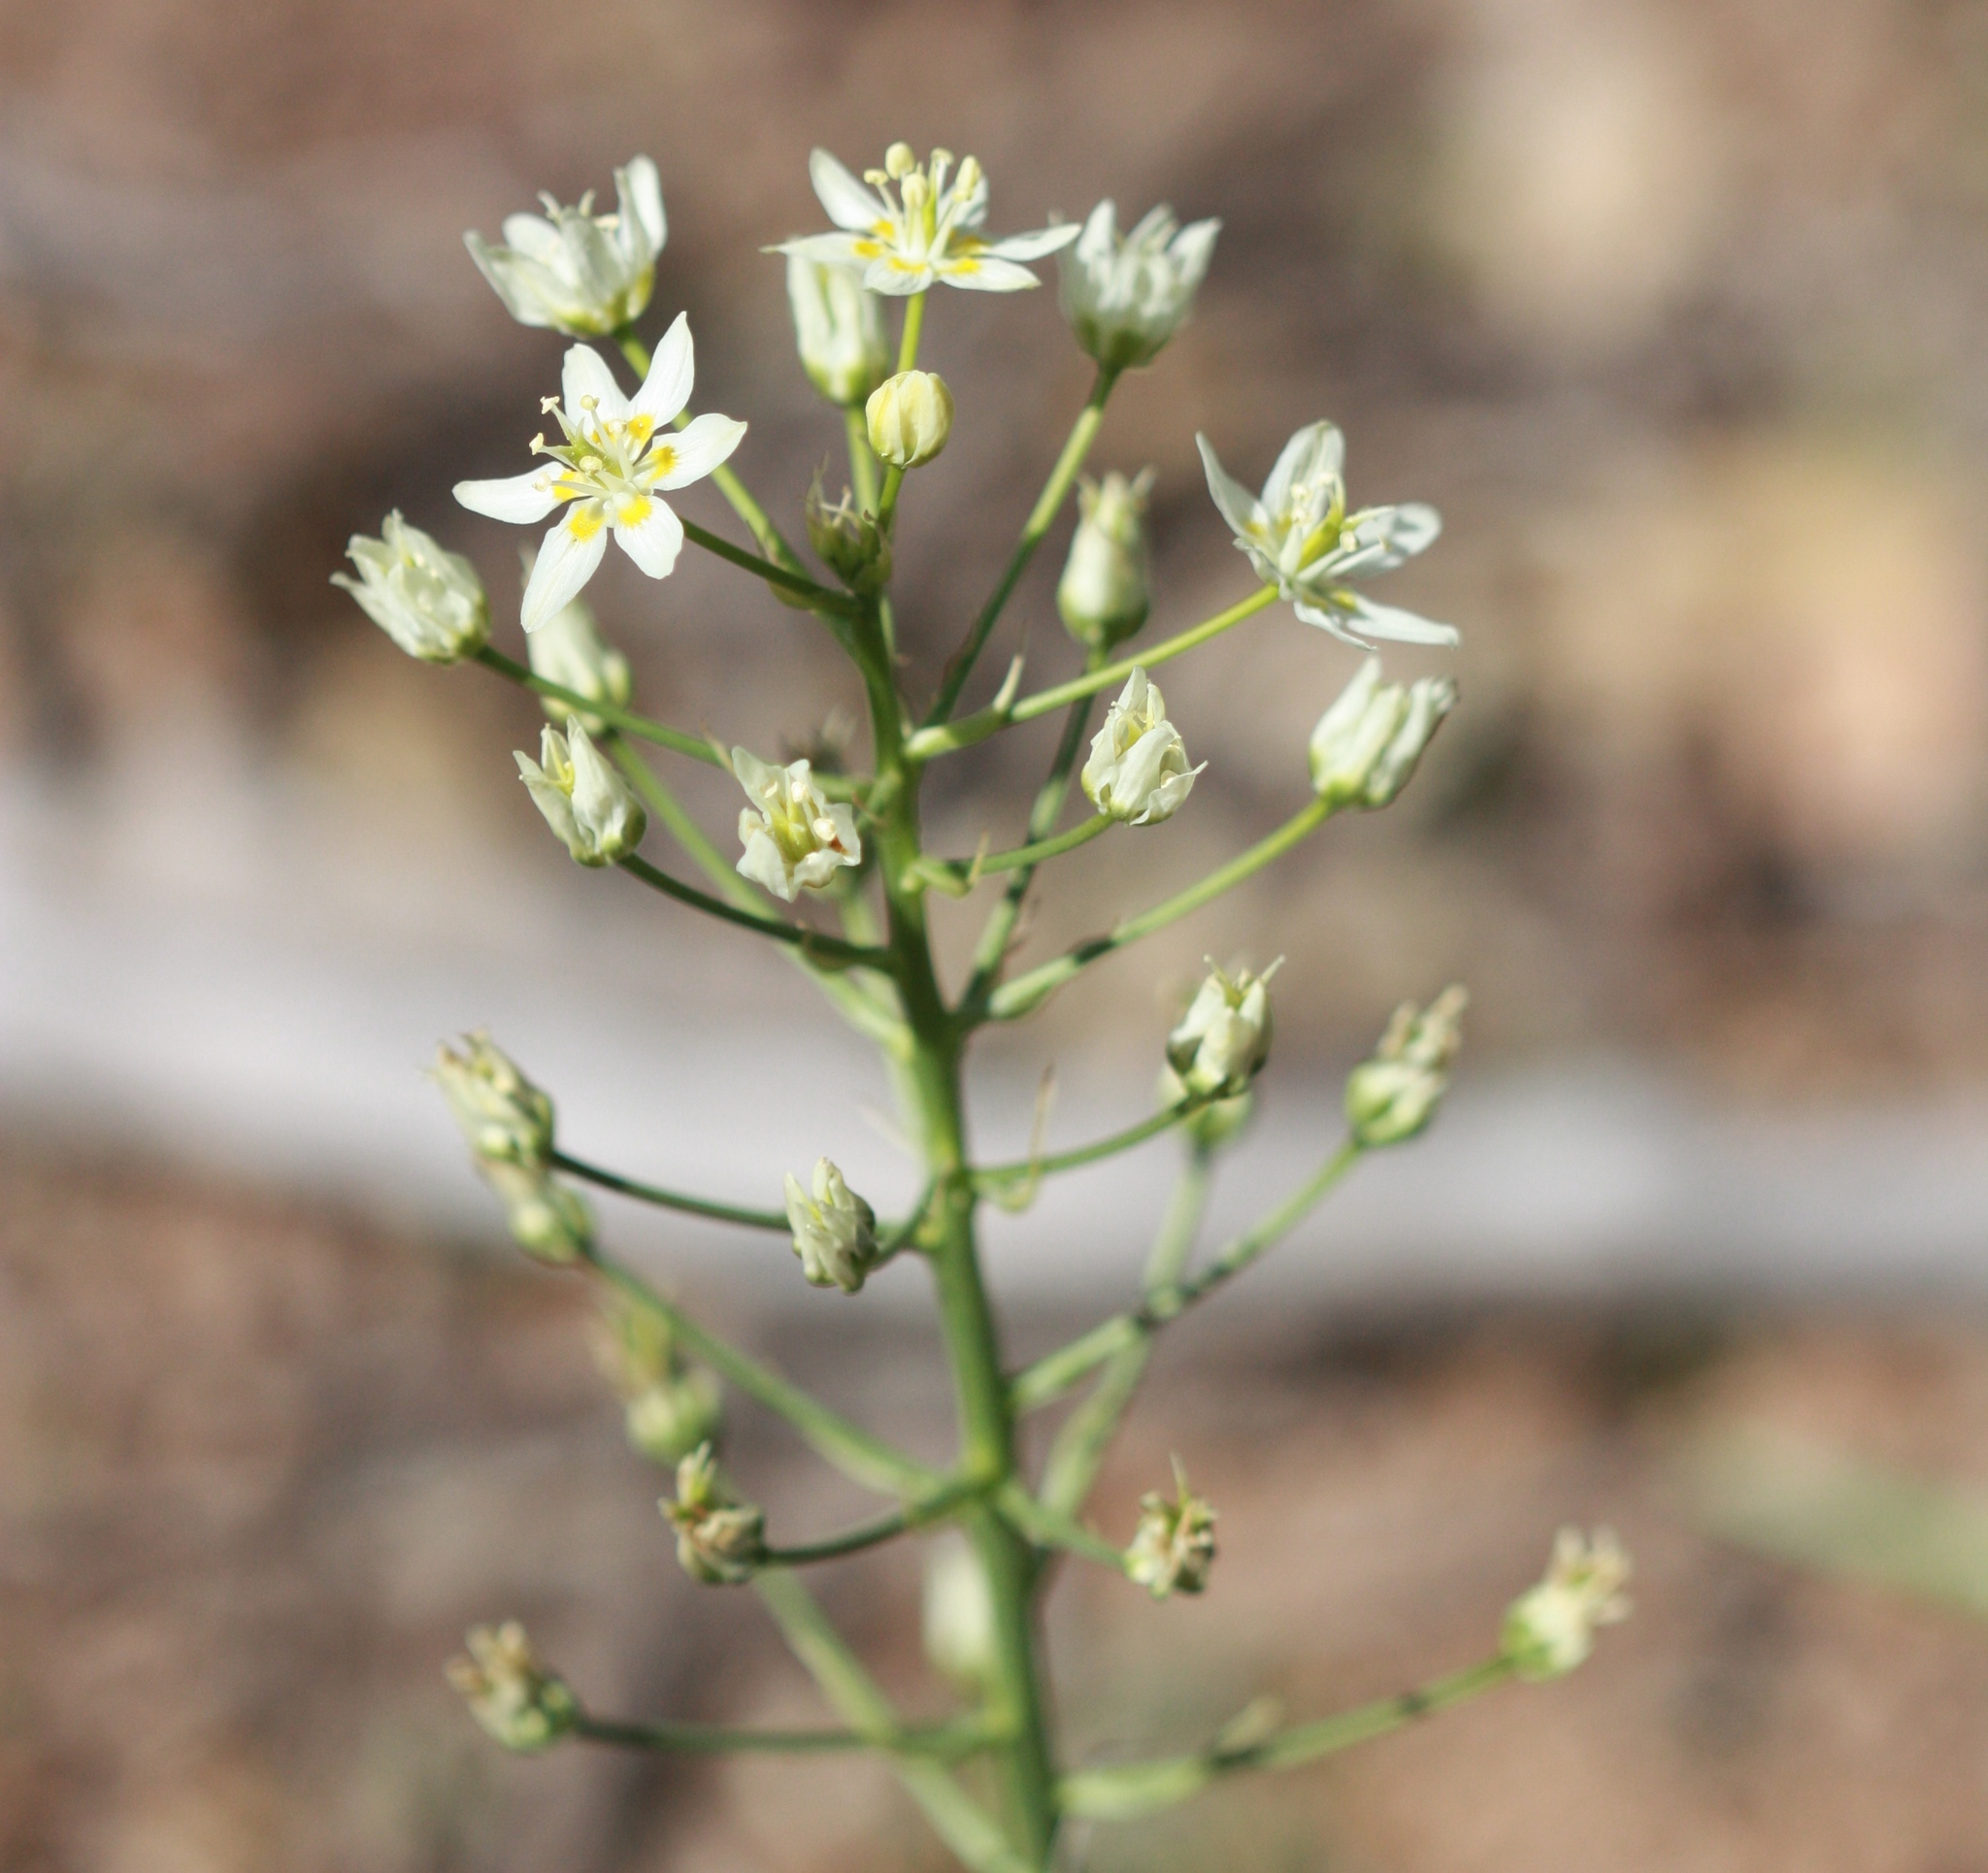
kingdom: Plantae
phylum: Tracheophyta
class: Liliopsida
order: Liliales
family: Melanthiaceae
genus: Toxicoscordion
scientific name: Toxicoscordion fremontii
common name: Fremont's death camas
